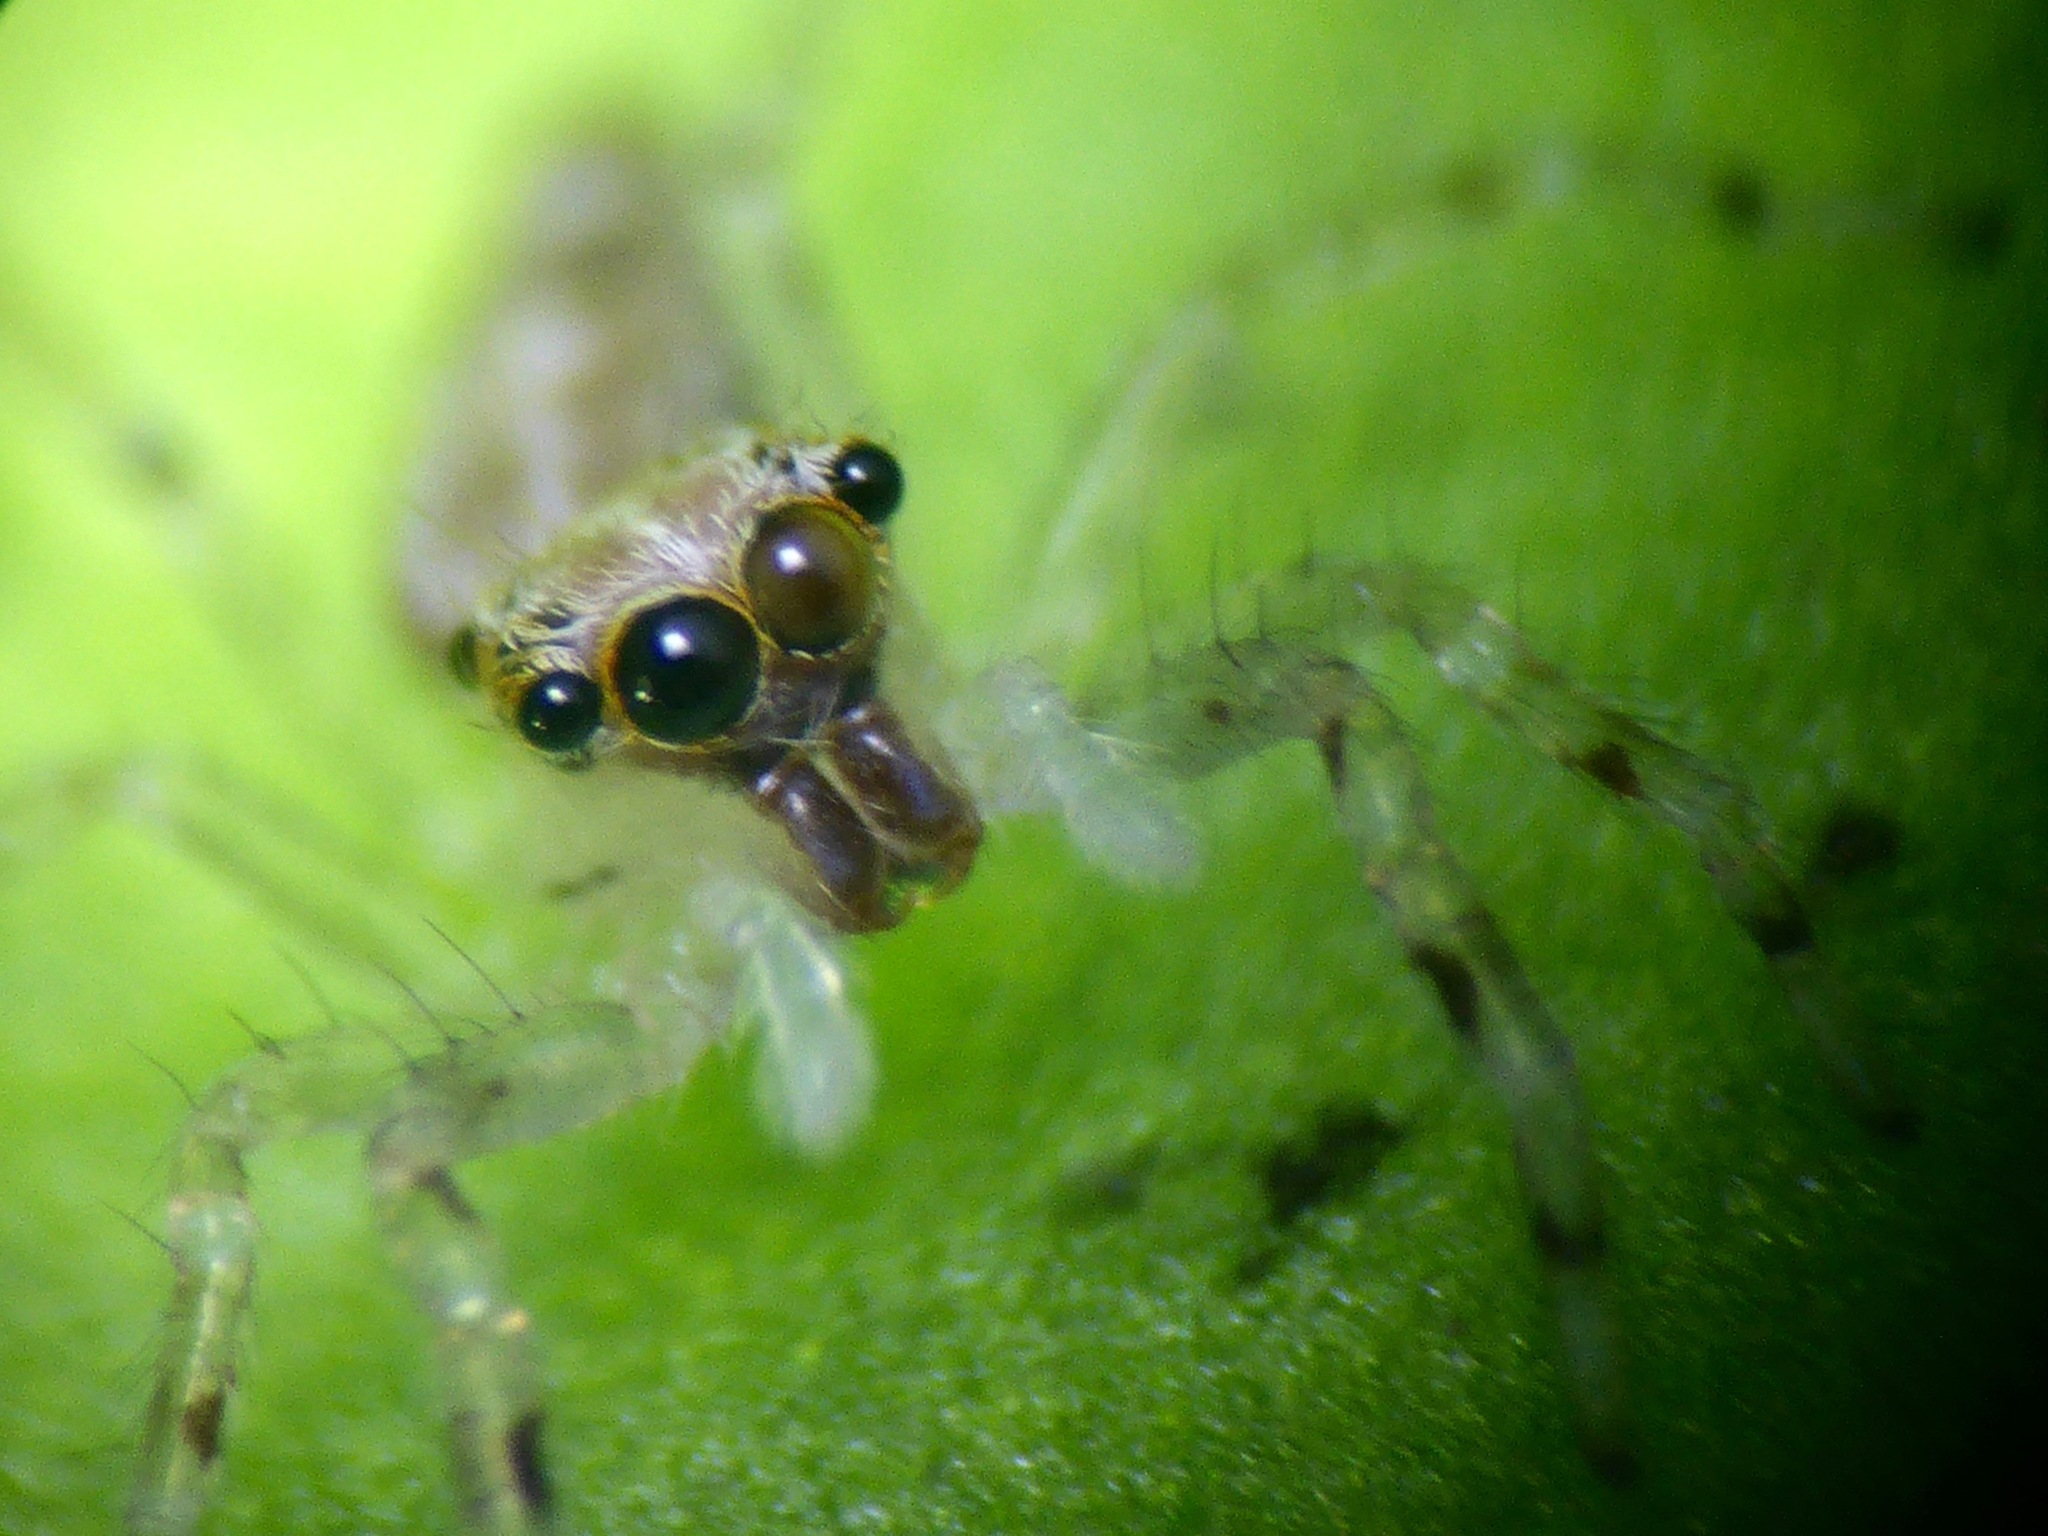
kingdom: Animalia
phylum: Arthropoda
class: Arachnida
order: Araneae
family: Salticidae
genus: Helpis
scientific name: Helpis minitabunda
